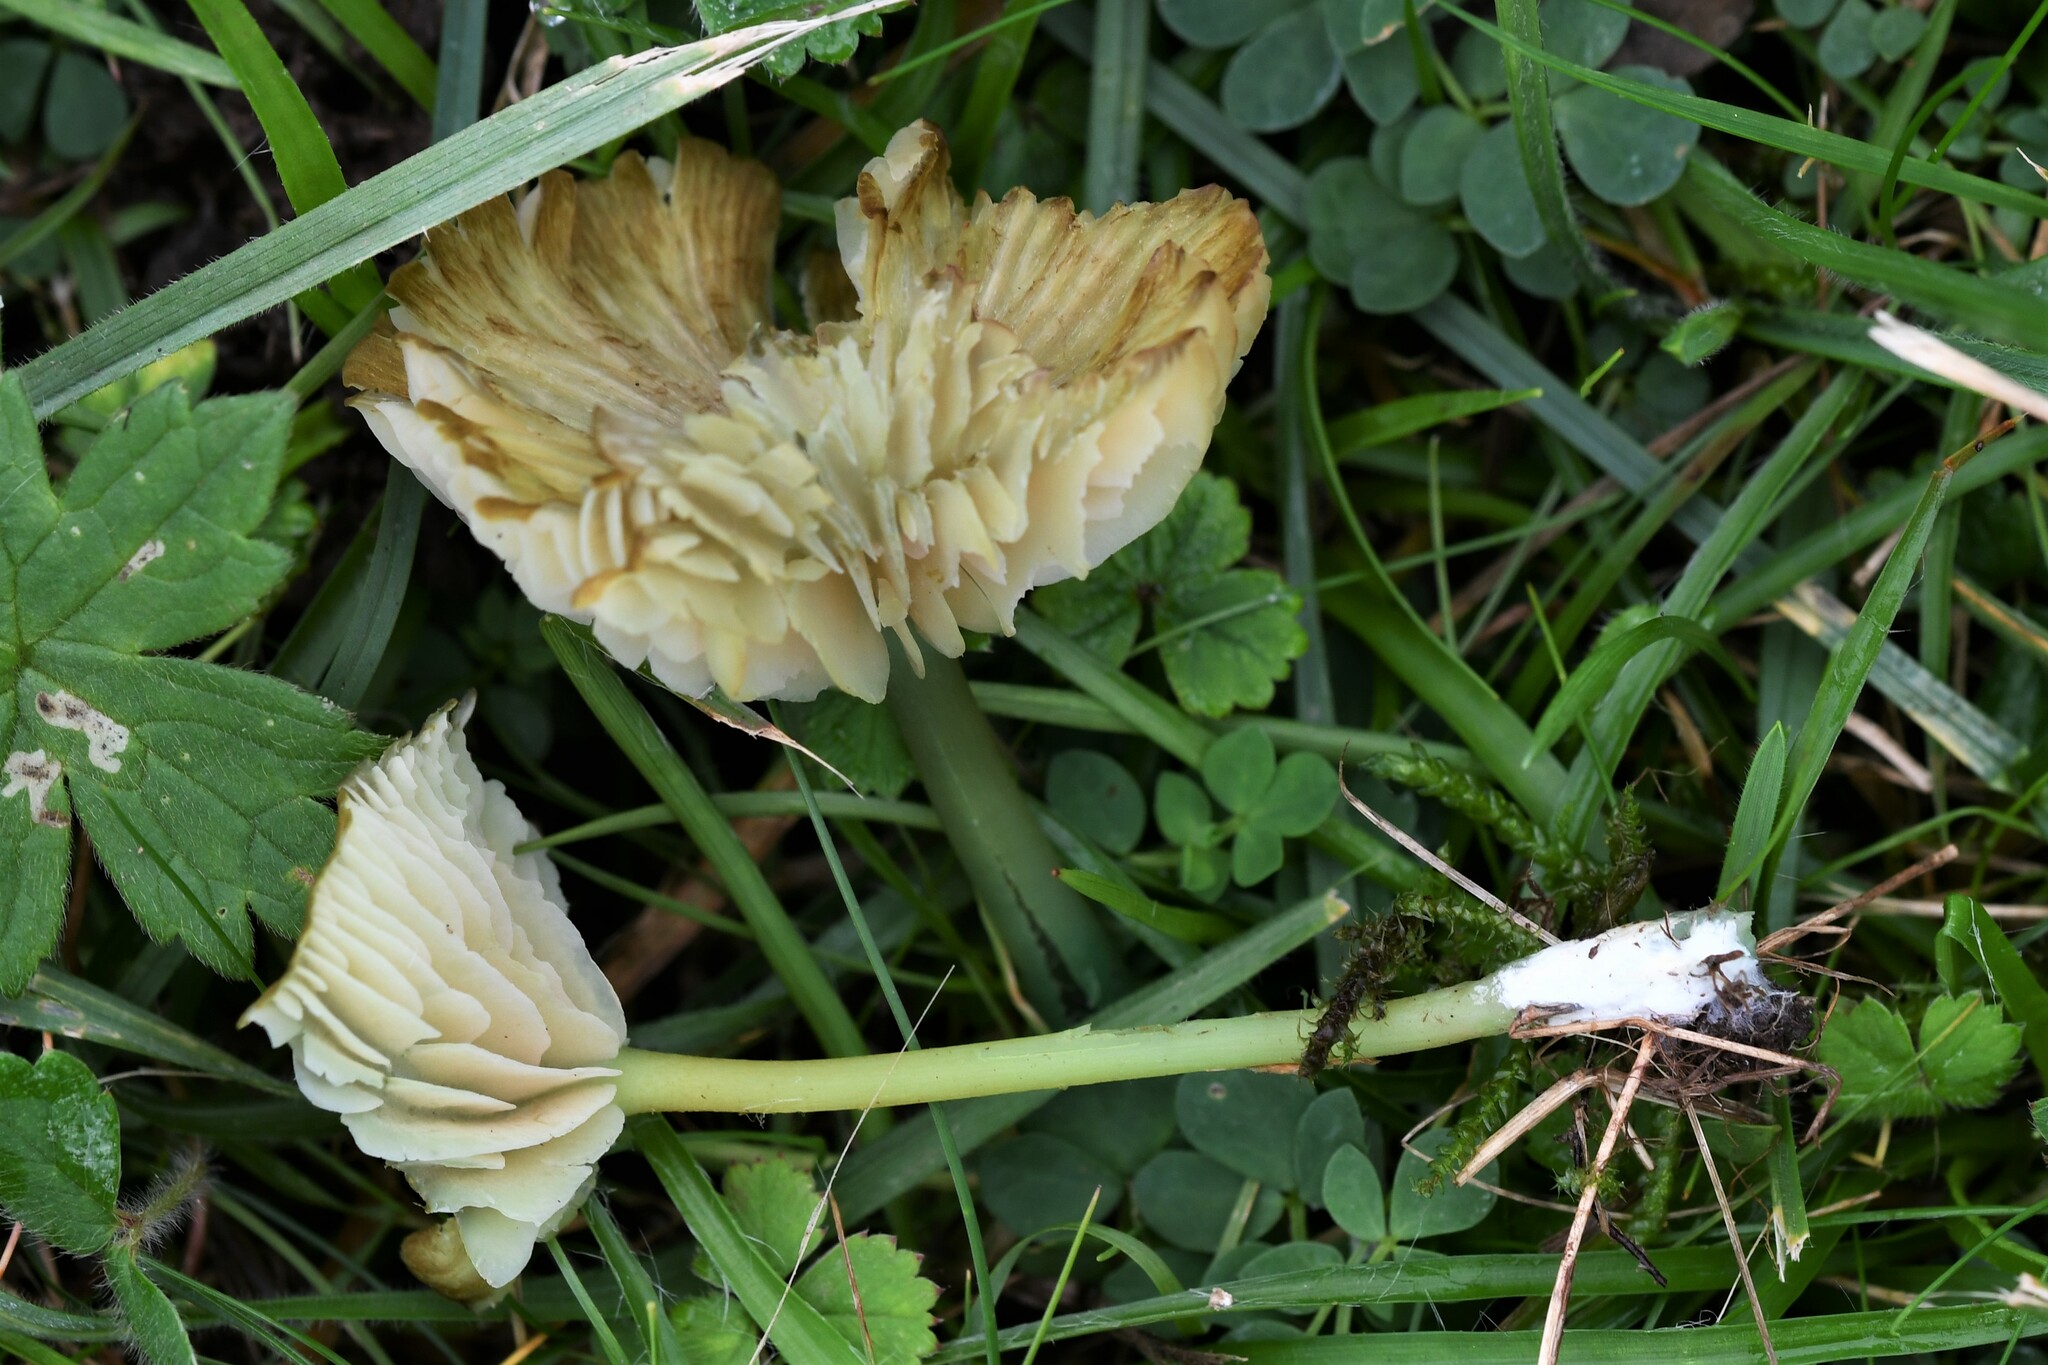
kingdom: Fungi
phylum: Basidiomycota
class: Agaricomycetes
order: Agaricales
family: Entolomataceae
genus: Entoloma
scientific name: Entoloma incanum
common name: Mousepee pinkgill
